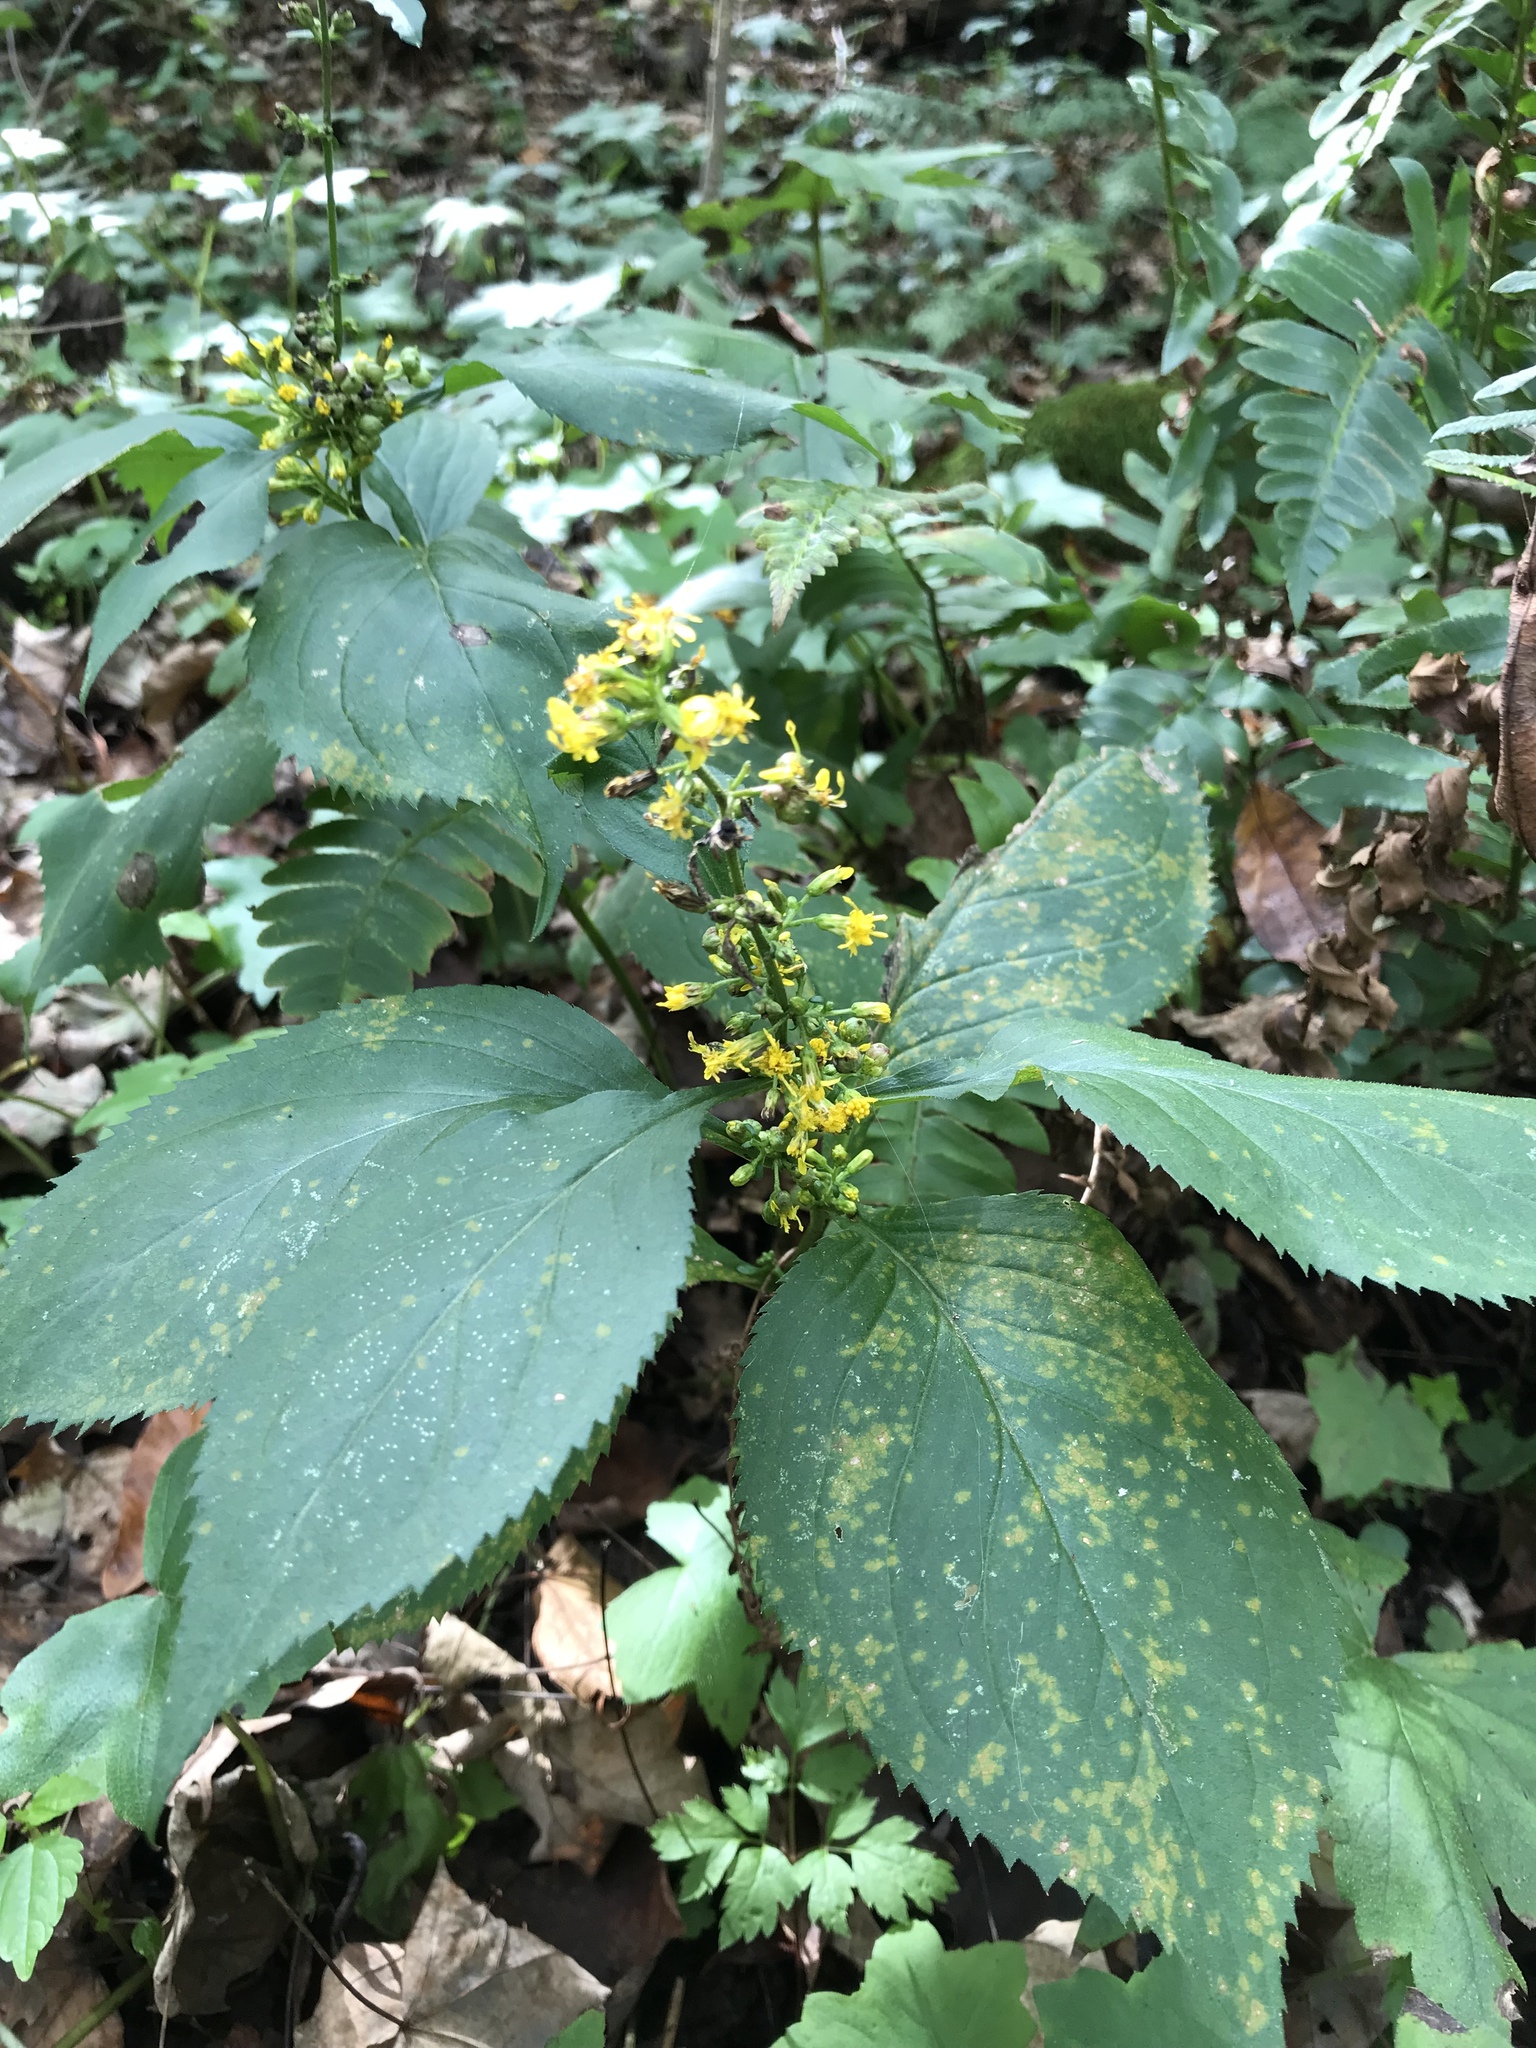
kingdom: Plantae
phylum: Tracheophyta
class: Magnoliopsida
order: Asterales
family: Asteraceae
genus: Solidago
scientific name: Solidago flexicaulis
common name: Zig-zag goldenrod
